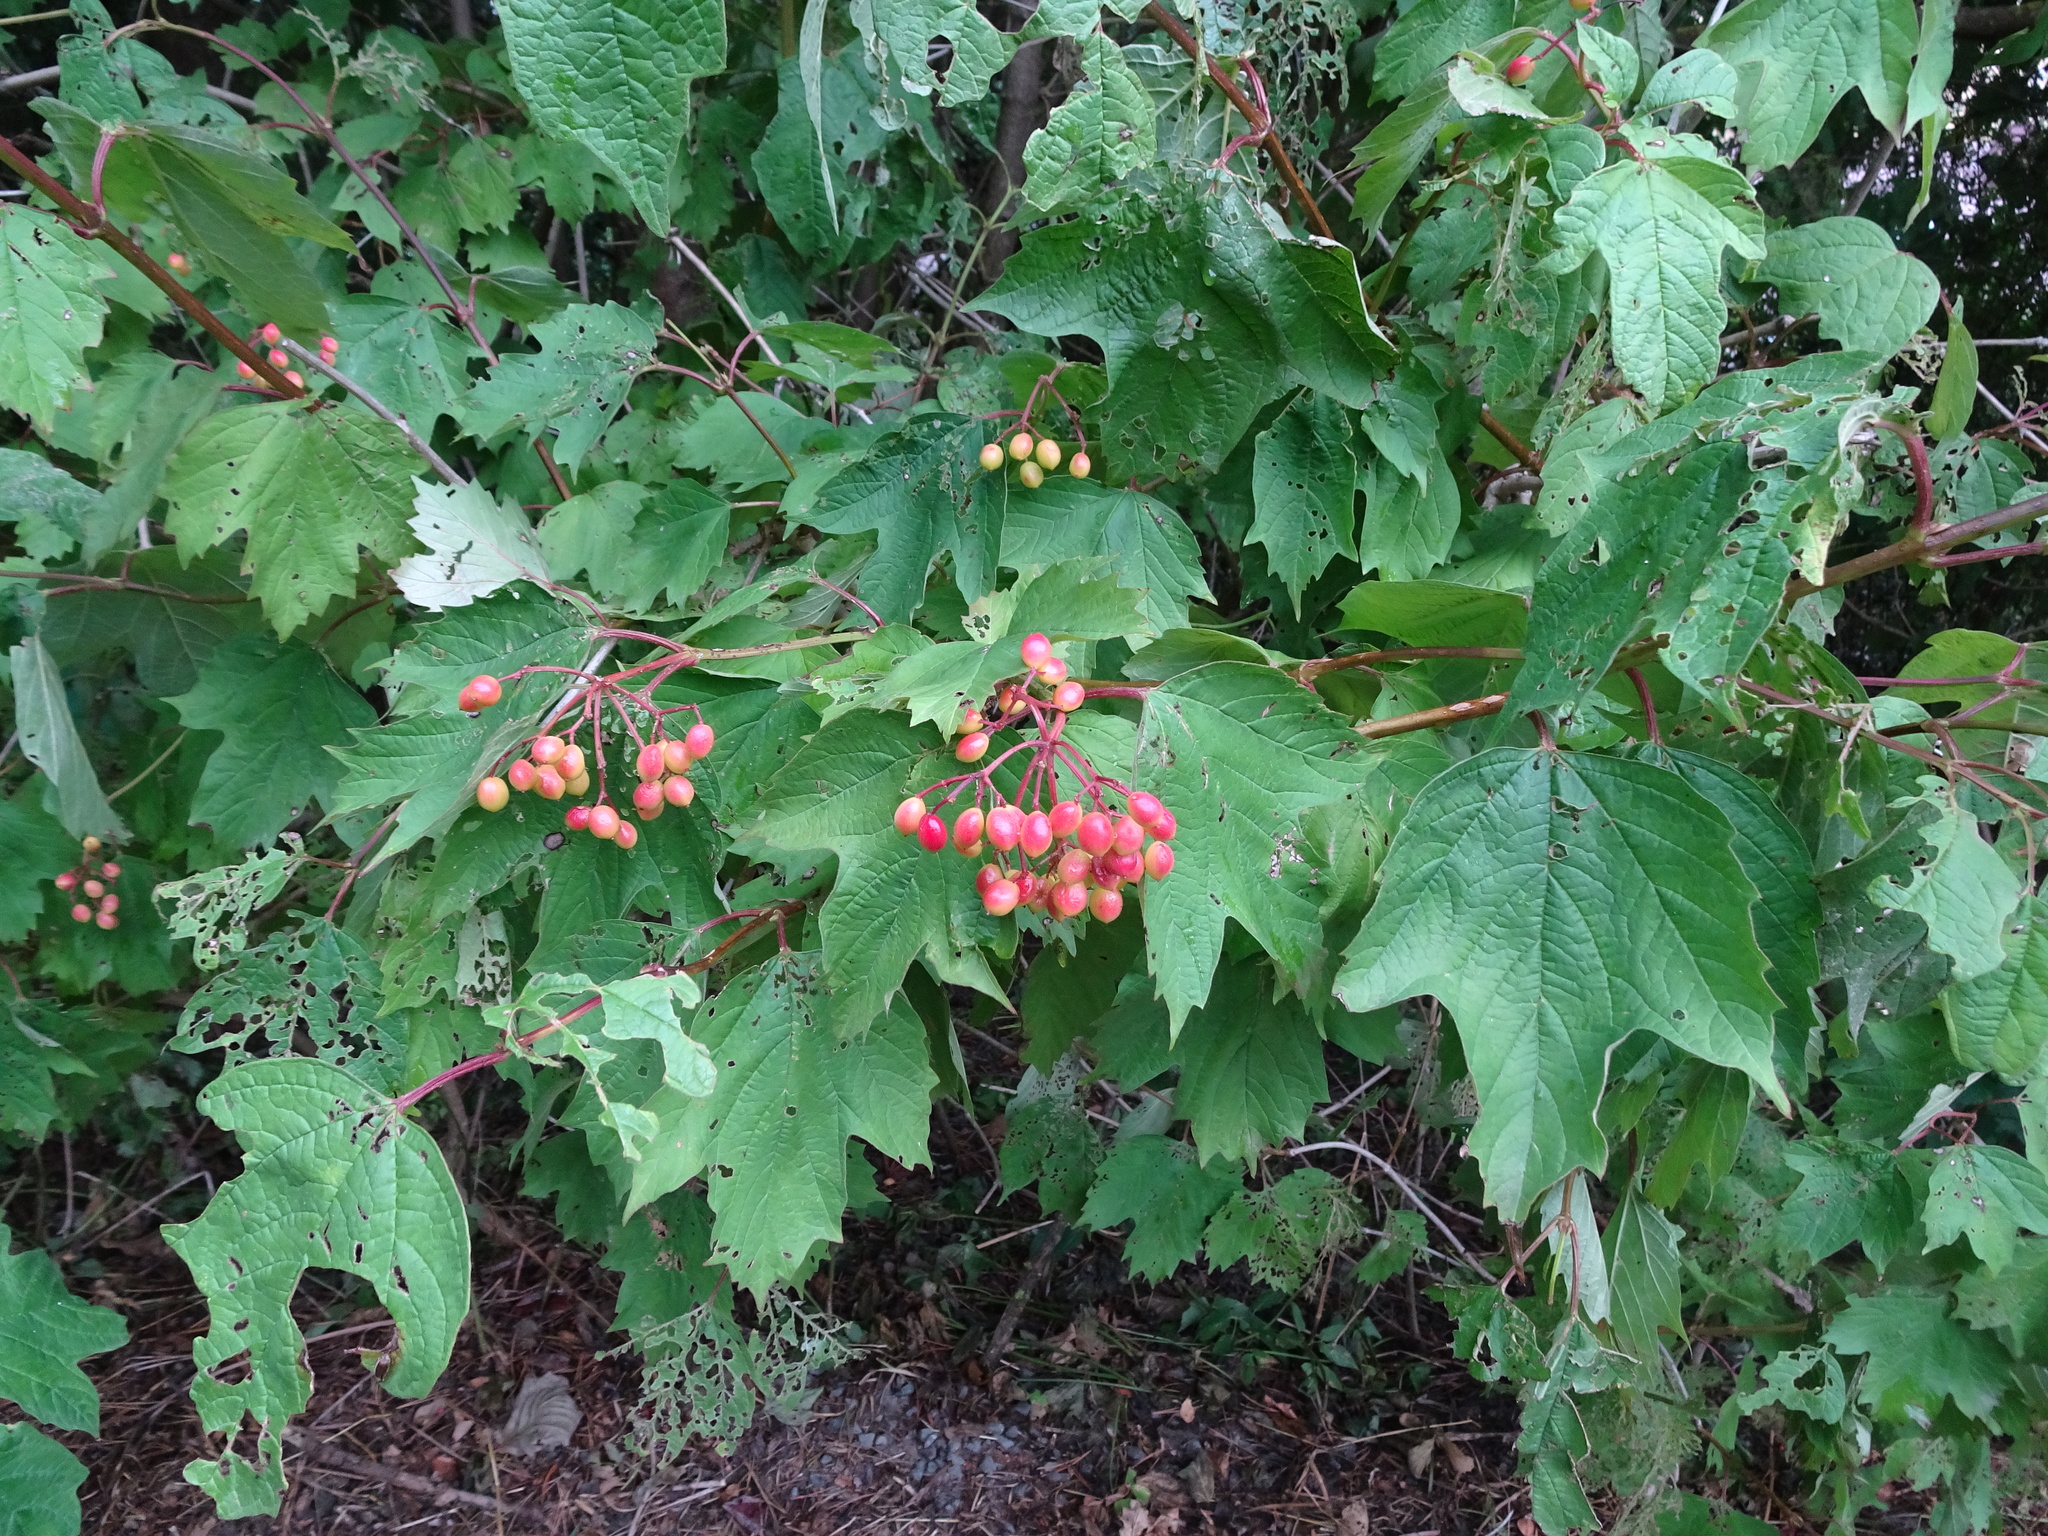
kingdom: Plantae
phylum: Tracheophyta
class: Magnoliopsida
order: Dipsacales
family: Viburnaceae
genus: Viburnum
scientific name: Viburnum opulus
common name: Guelder-rose
